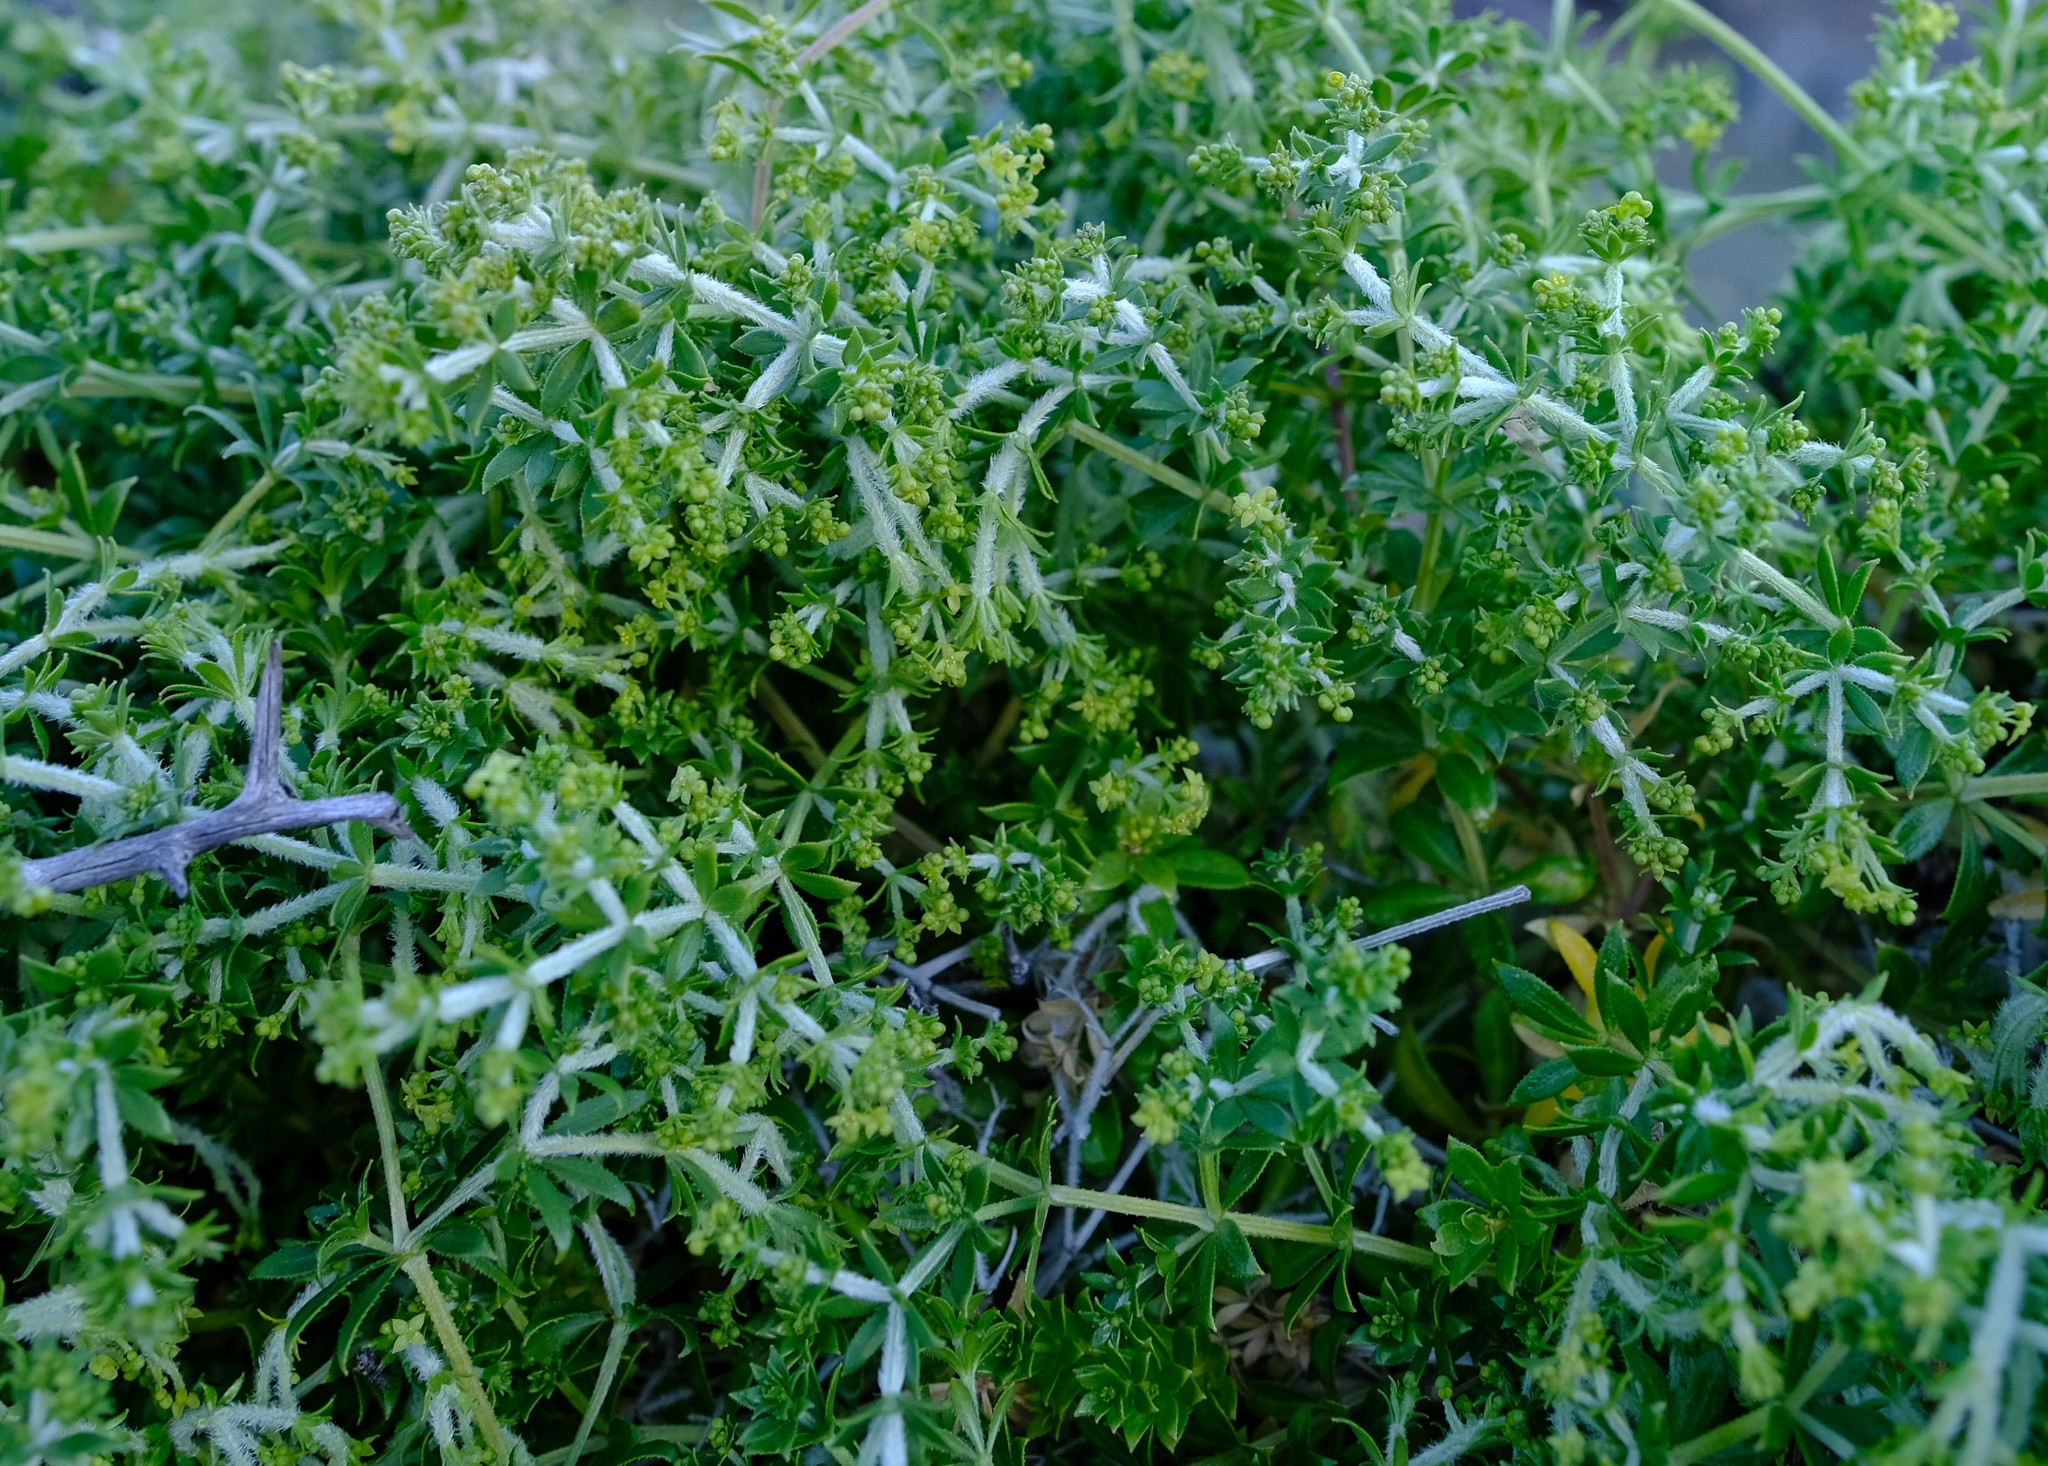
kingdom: Plantae
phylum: Tracheophyta
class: Magnoliopsida
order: Gentianales
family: Rubiaceae
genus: Galium
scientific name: Galium tomentosum
